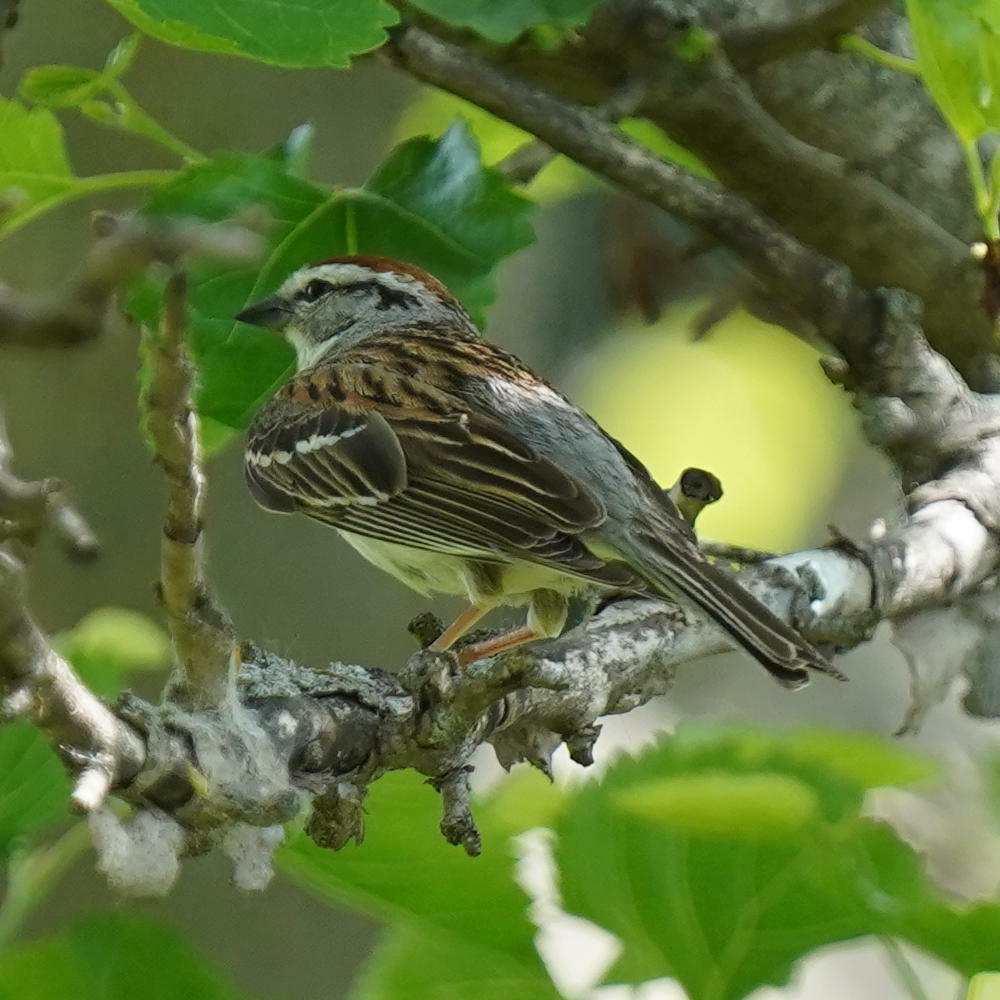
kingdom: Animalia
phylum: Chordata
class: Aves
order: Passeriformes
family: Passerellidae
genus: Spizella
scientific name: Spizella passerina
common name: Chipping sparrow
